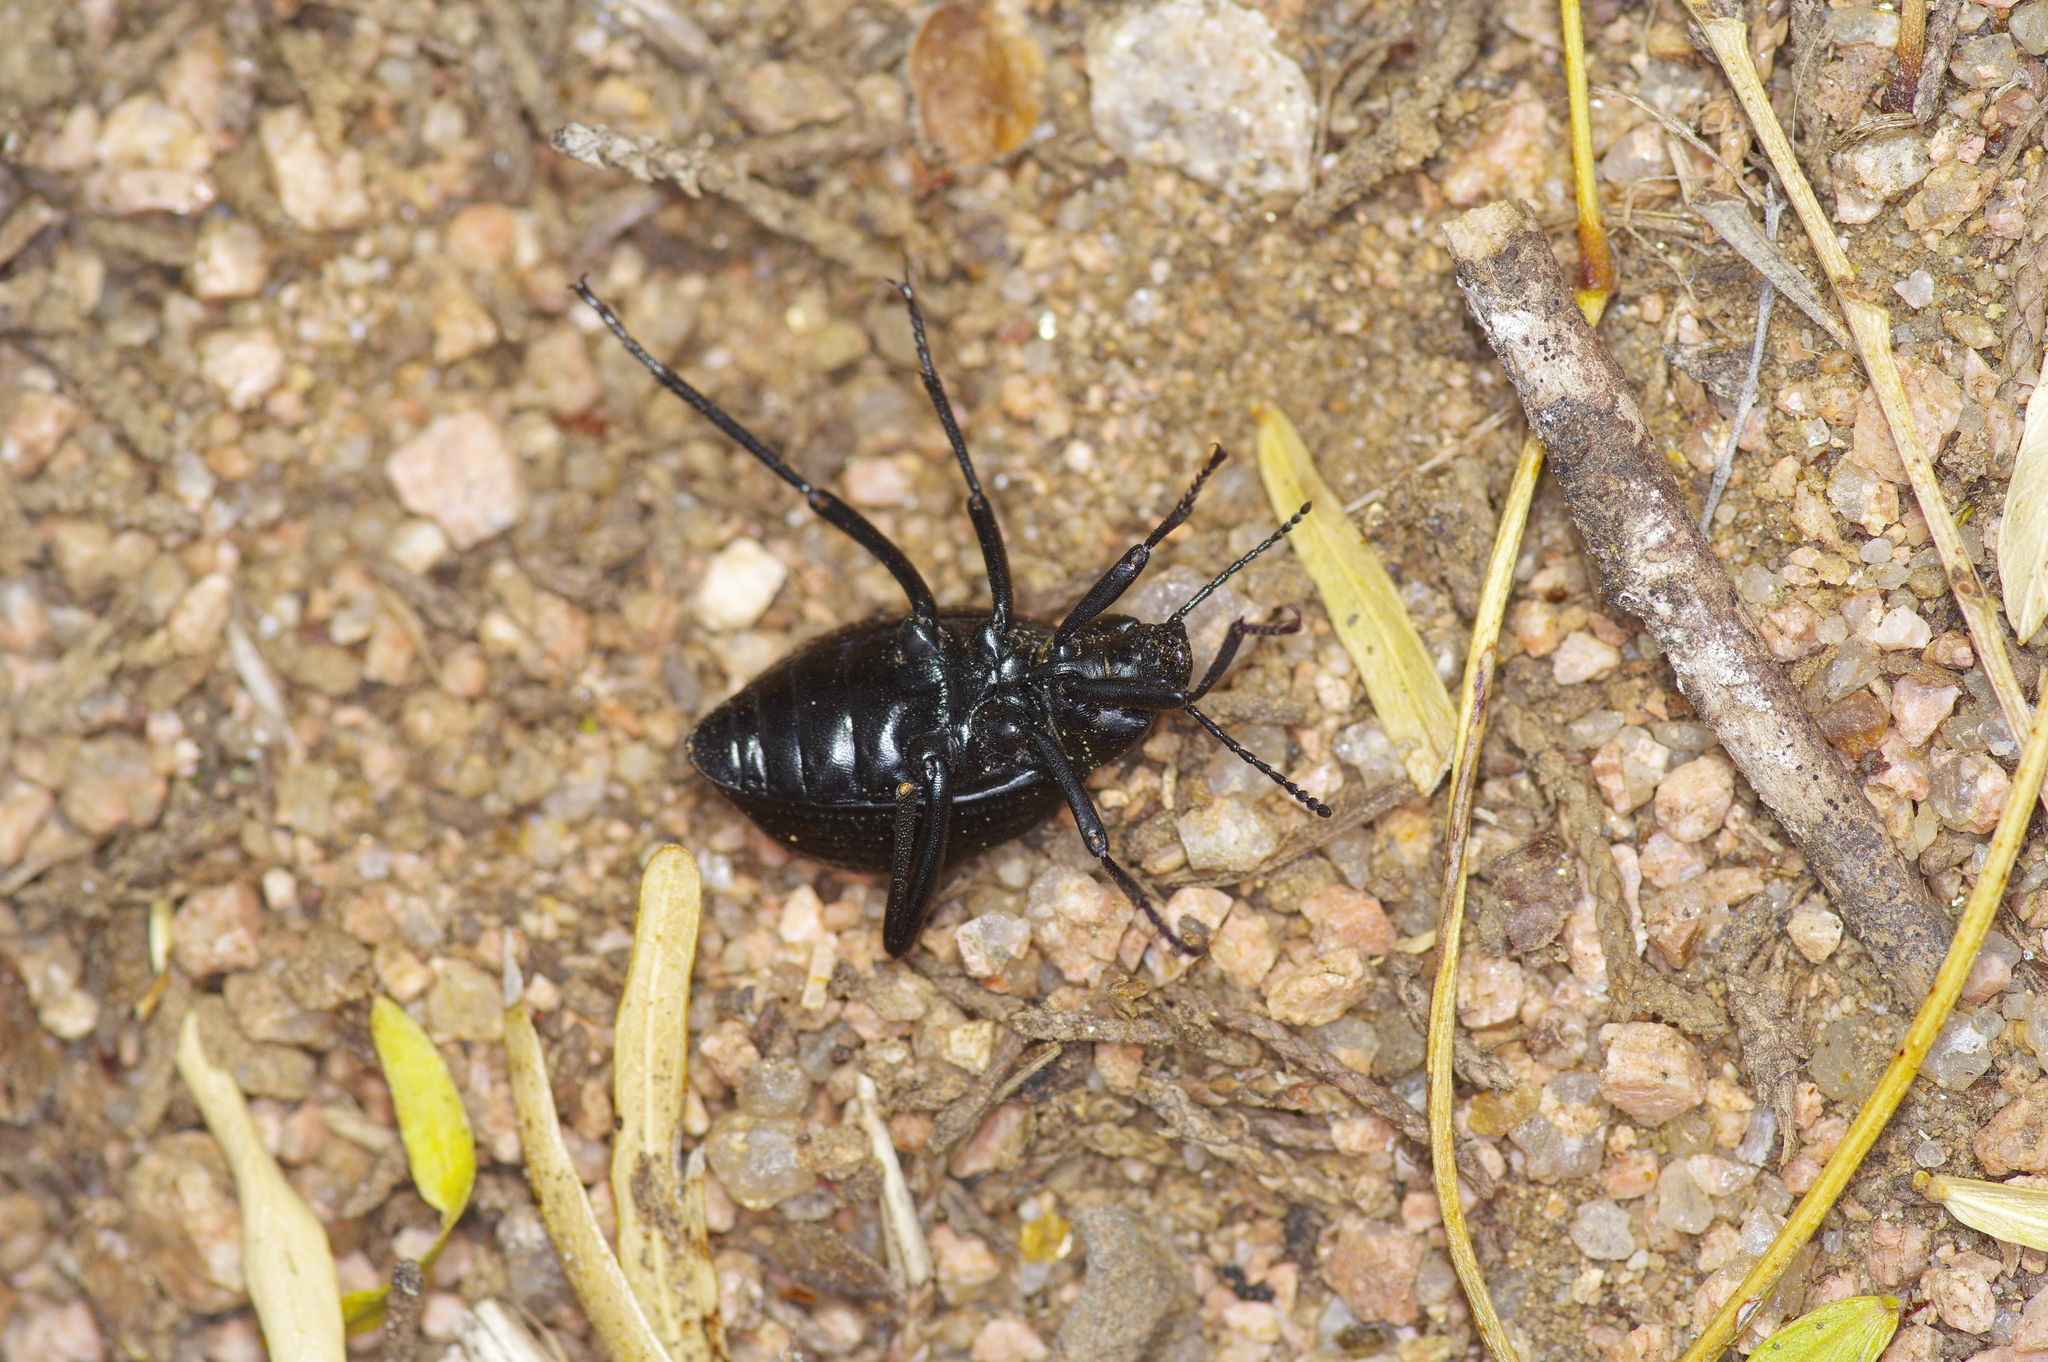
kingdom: Animalia
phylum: Arthropoda
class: Insecta
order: Coleoptera
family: Tenebrionidae
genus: Eleodes
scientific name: Eleodes goryi
